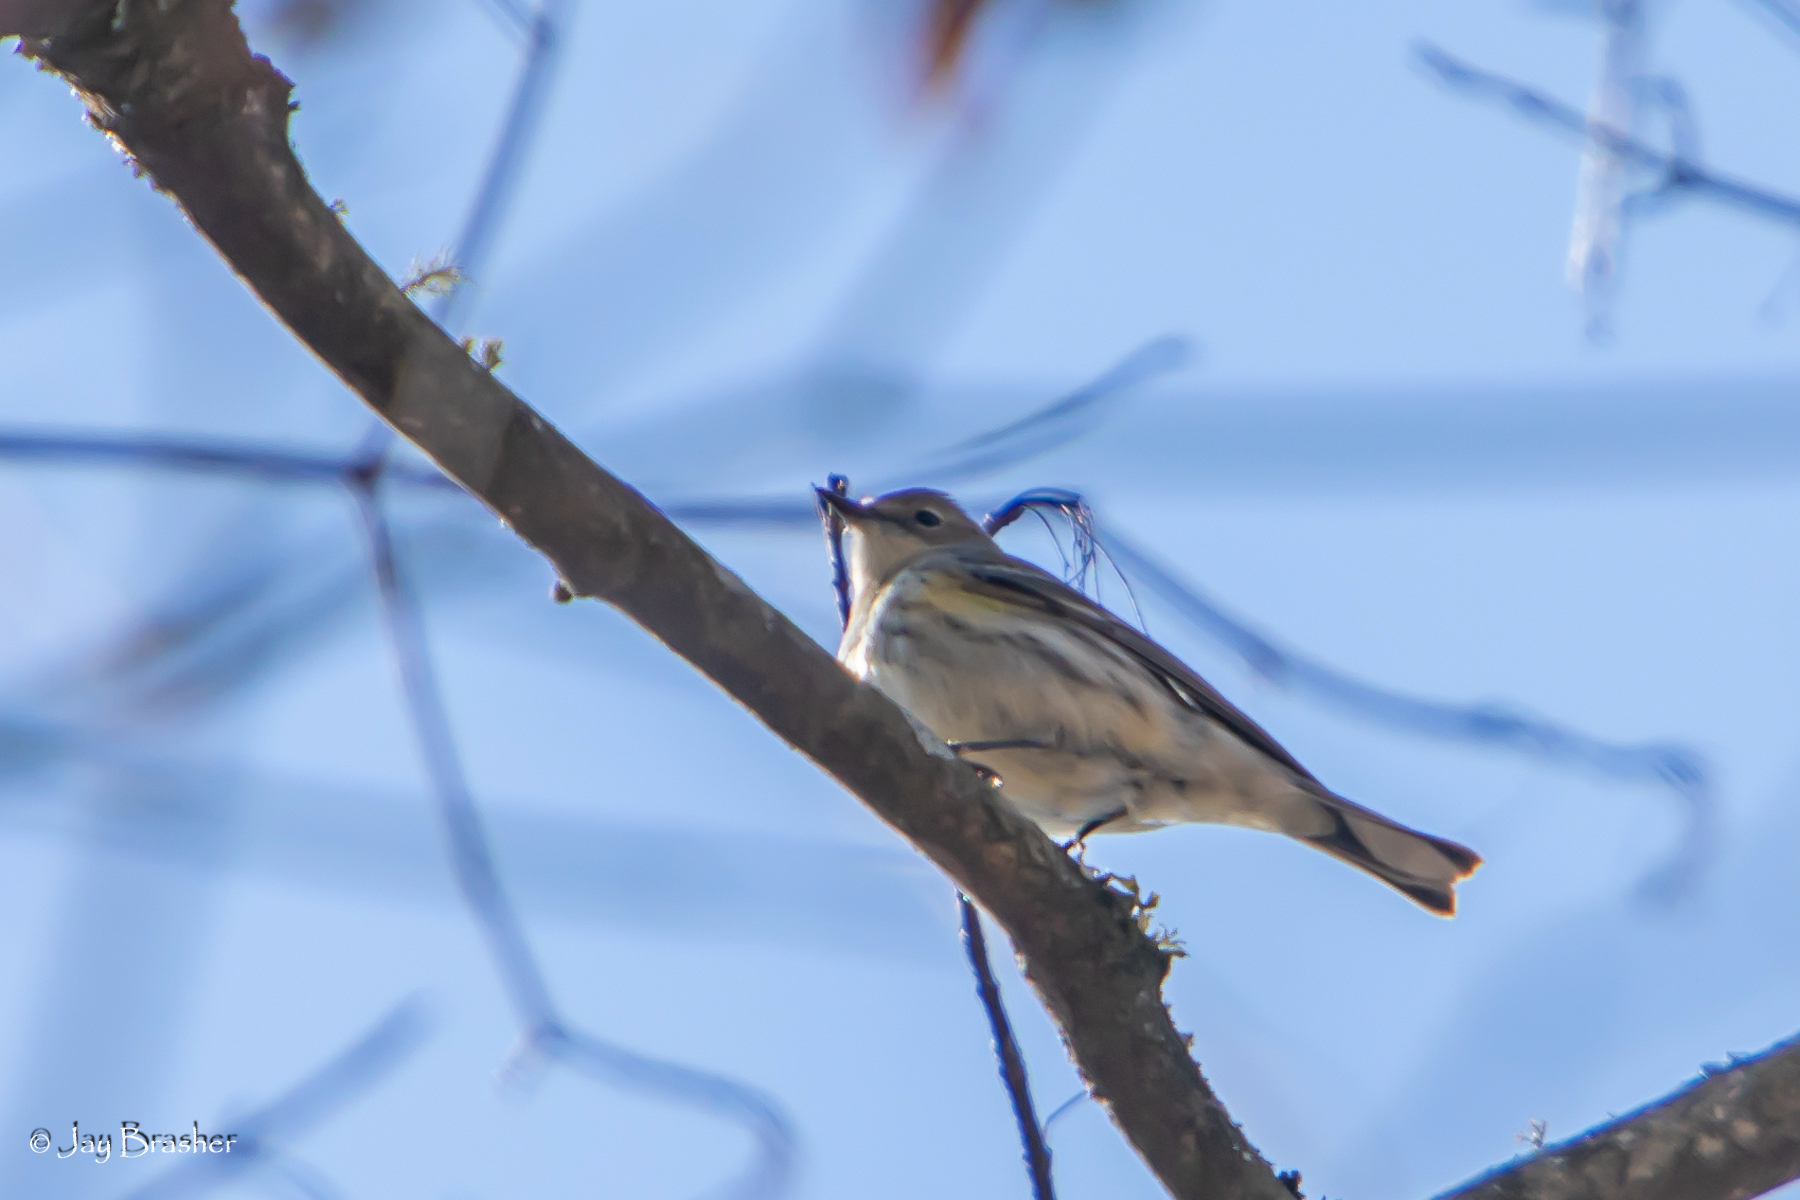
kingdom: Animalia
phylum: Chordata
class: Aves
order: Passeriformes
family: Parulidae
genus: Setophaga
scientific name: Setophaga coronata
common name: Myrtle warbler
